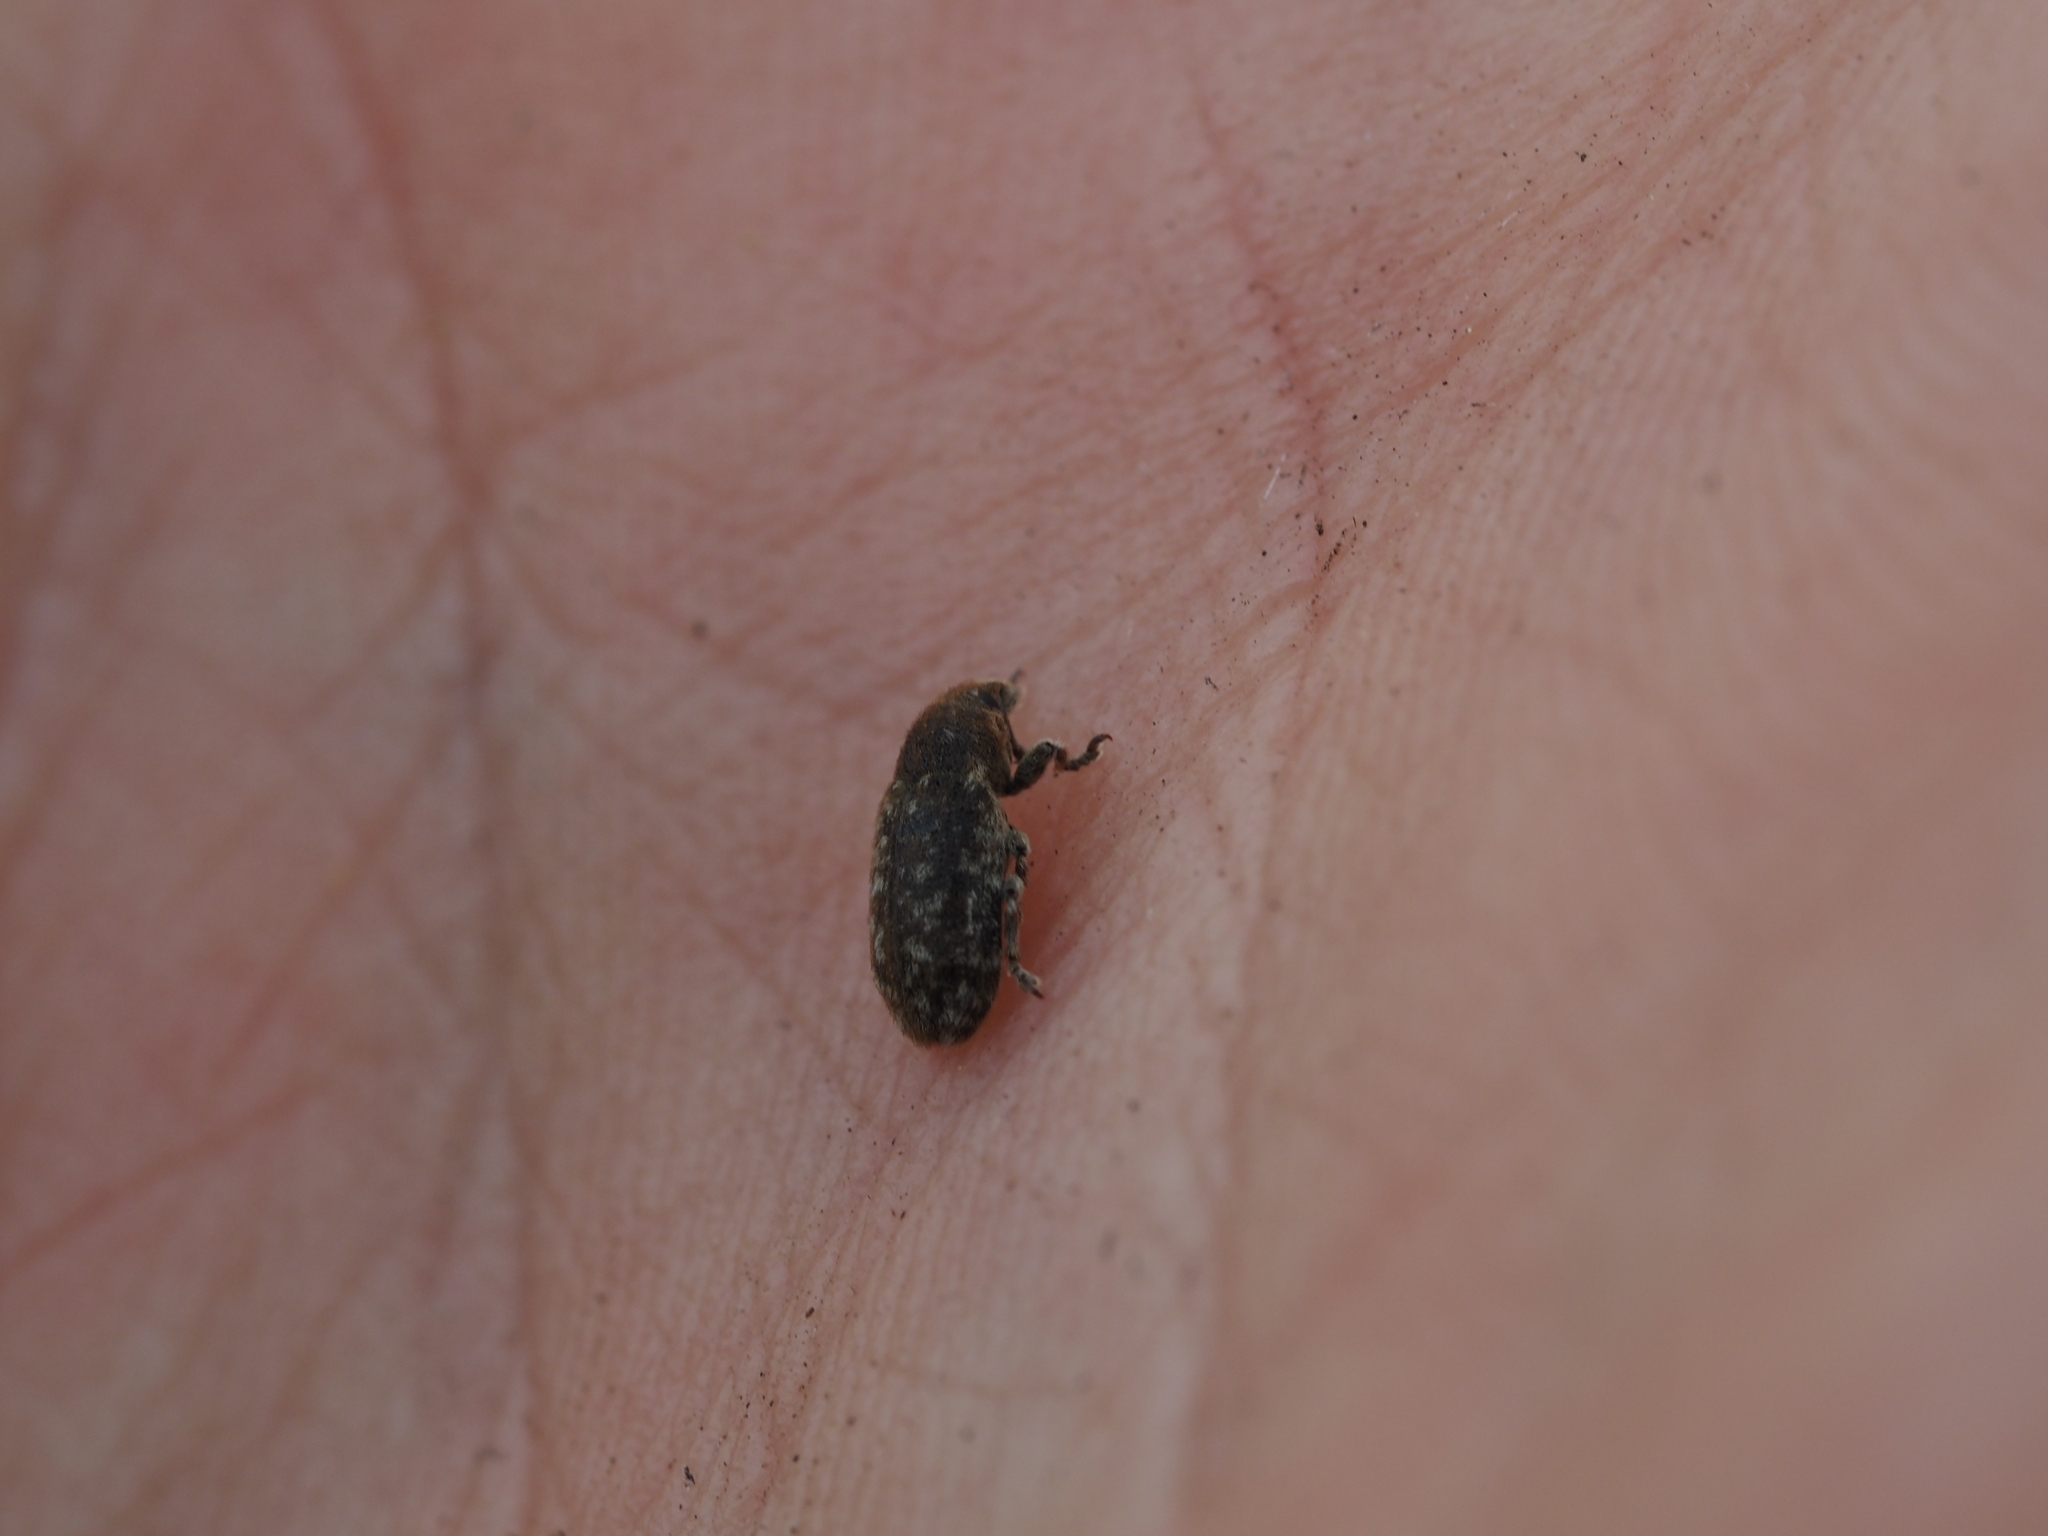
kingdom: Animalia
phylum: Arthropoda
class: Insecta
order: Coleoptera
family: Curculionidae
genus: Bangasternus
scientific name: Bangasternus fausti
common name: Broad-nosed knapweed seedhead weevil
